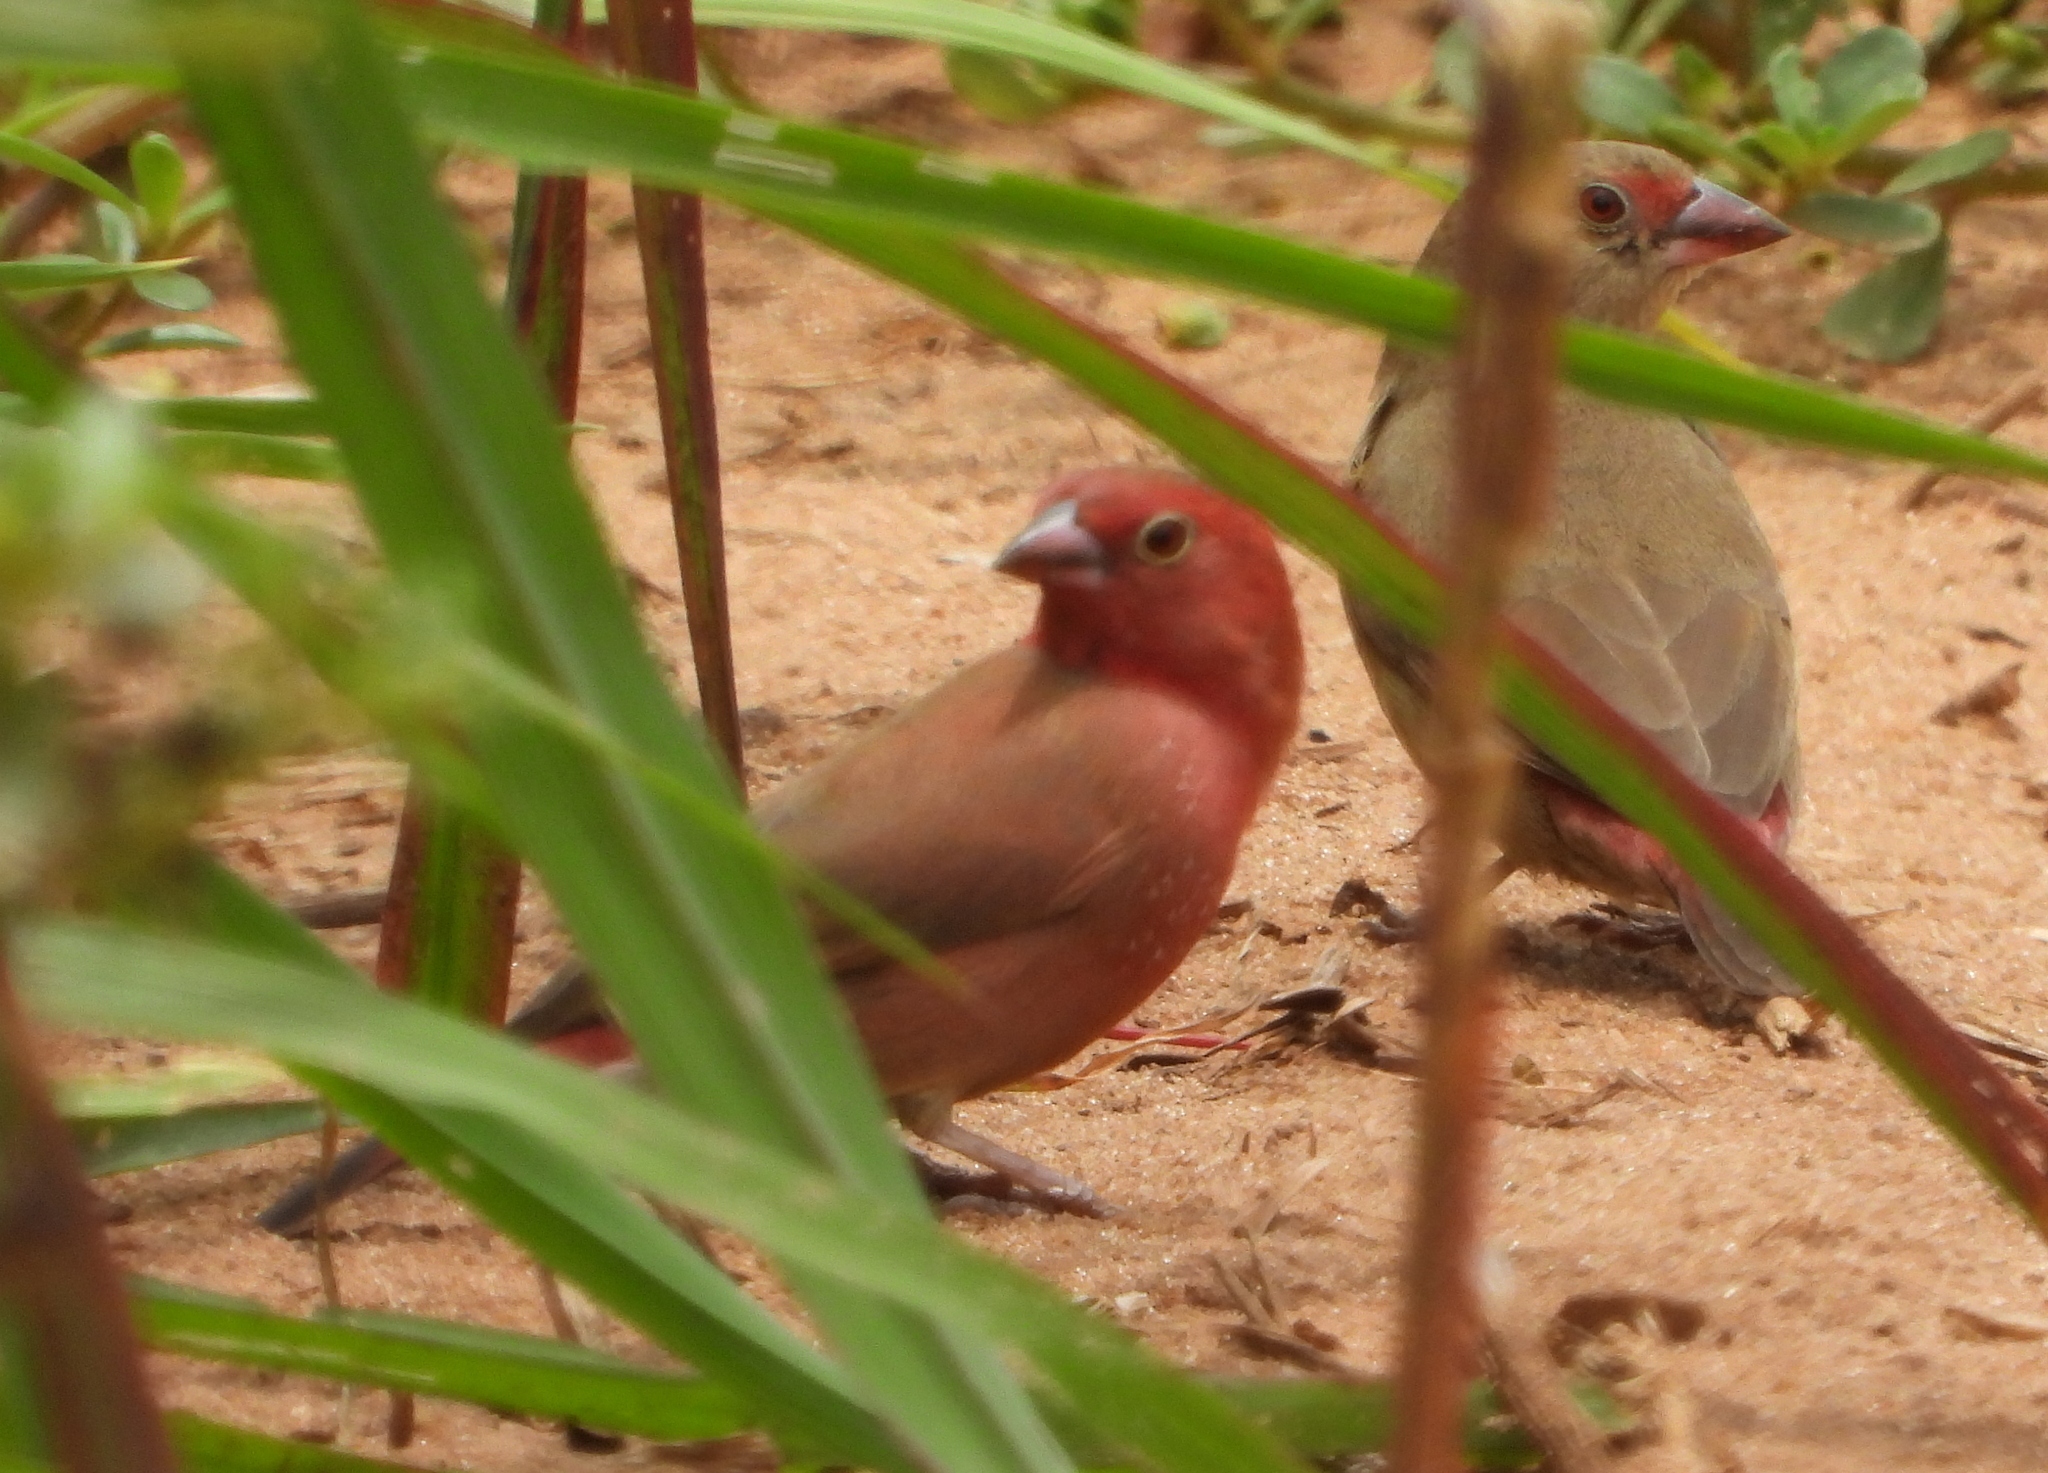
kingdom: Animalia
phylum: Chordata
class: Aves
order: Passeriformes
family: Estrildidae
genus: Lagonosticta
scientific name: Lagonosticta senegala
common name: Red-billed firefinch
